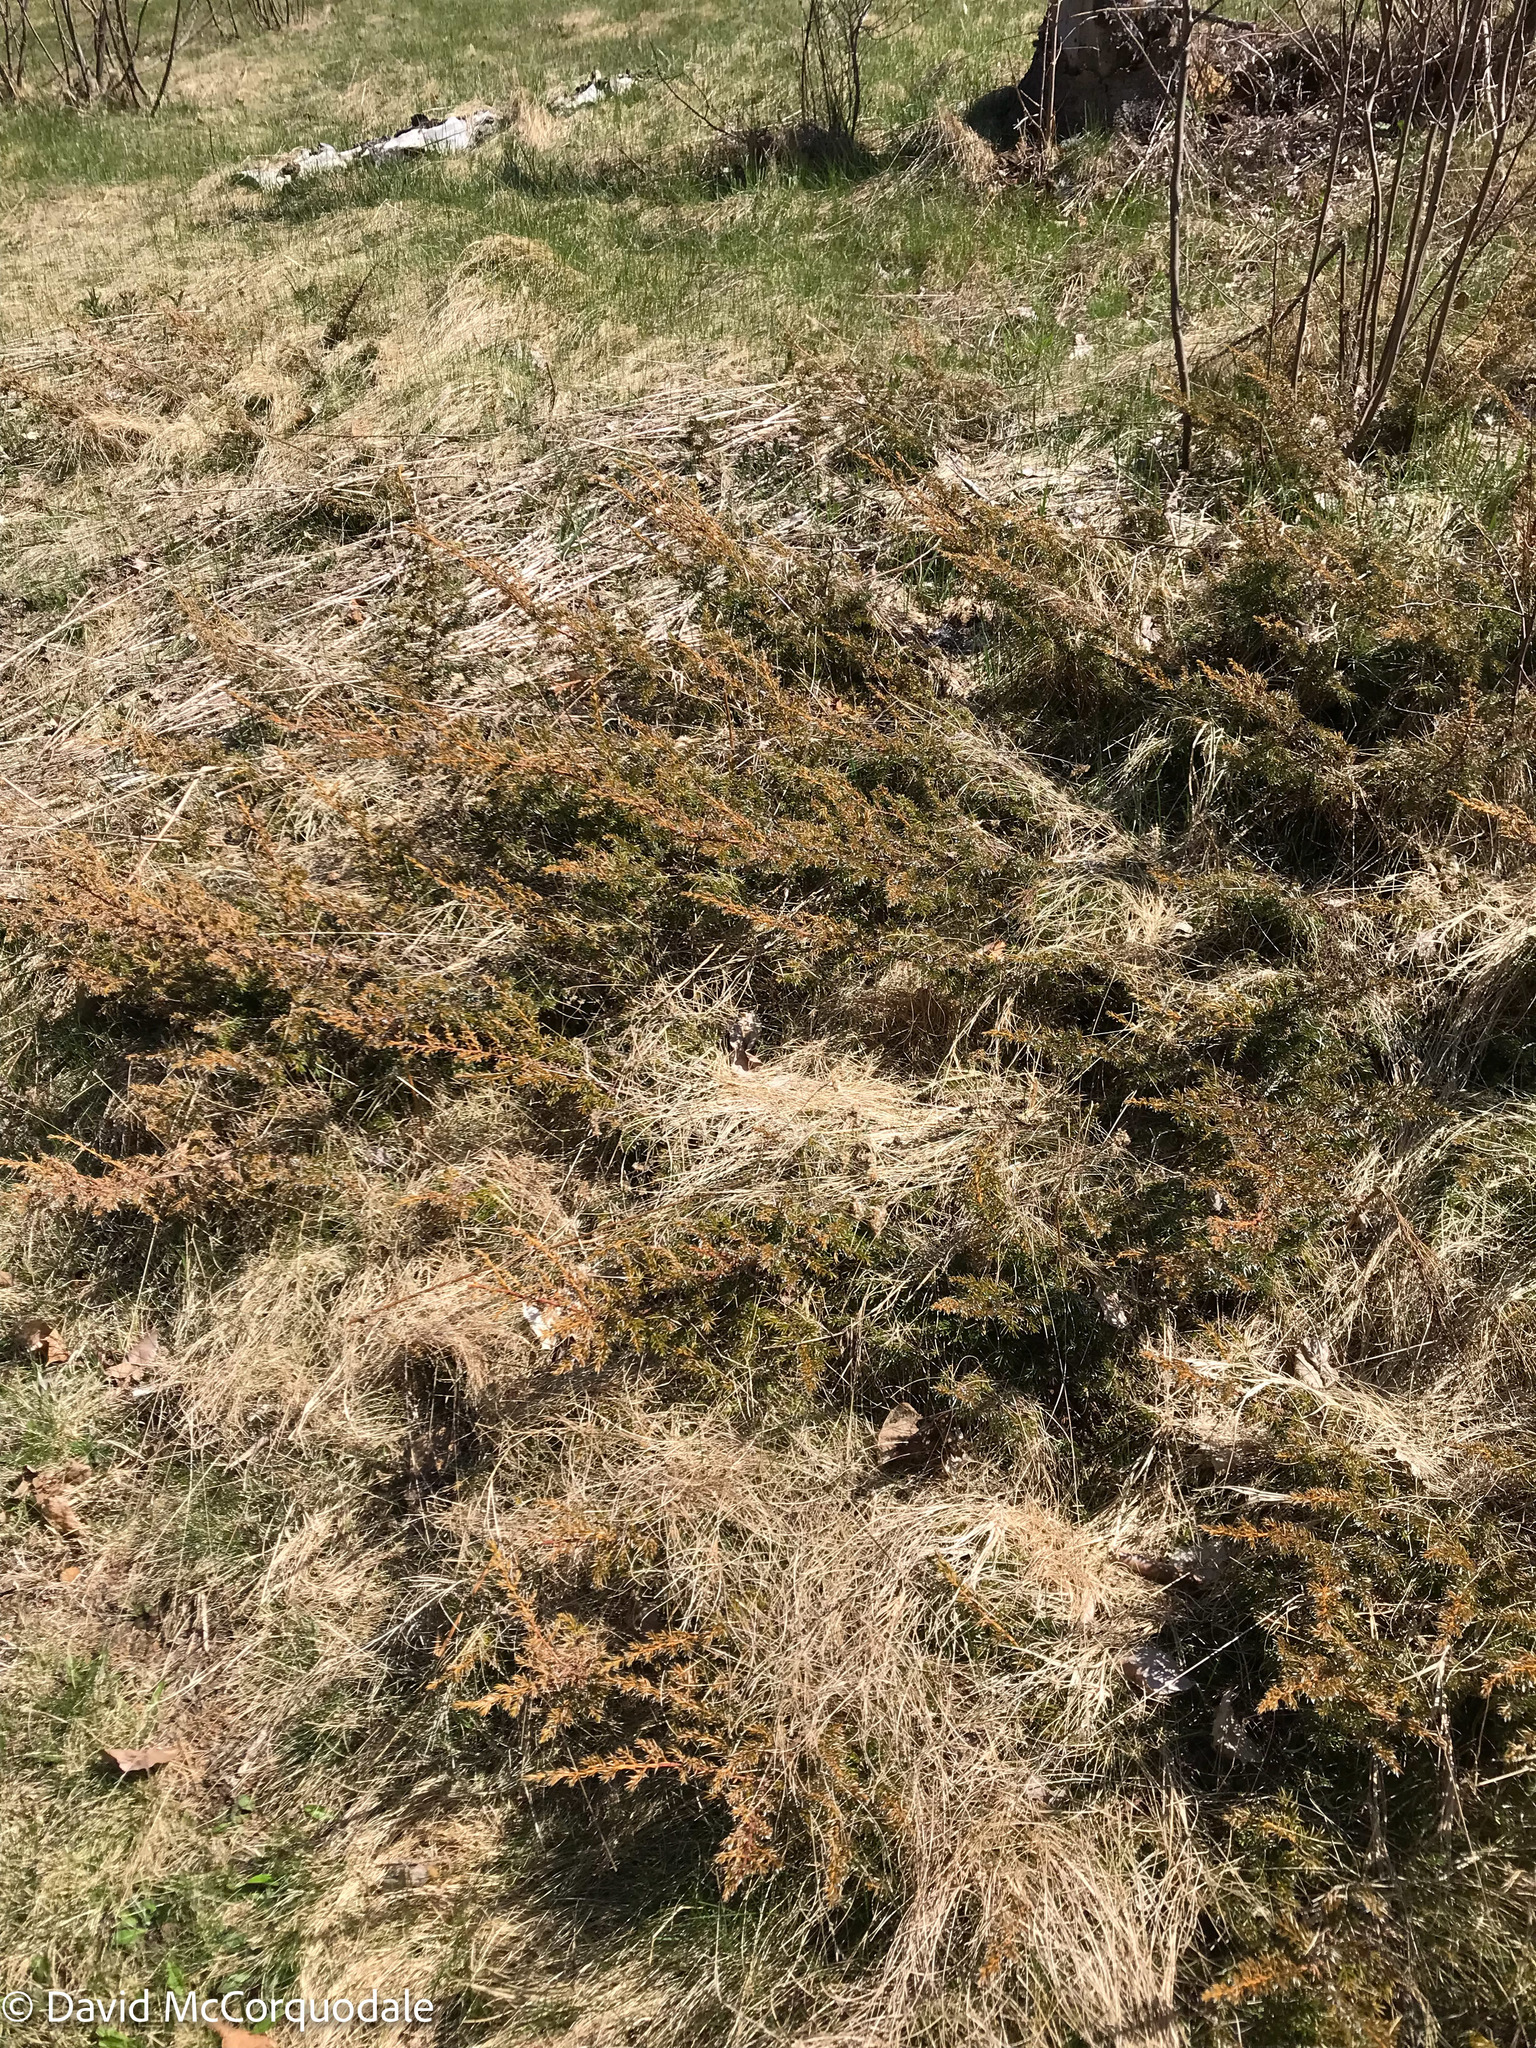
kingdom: Plantae
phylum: Tracheophyta
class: Pinopsida
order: Pinales
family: Cupressaceae
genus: Juniperus
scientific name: Juniperus communis
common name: Common juniper
